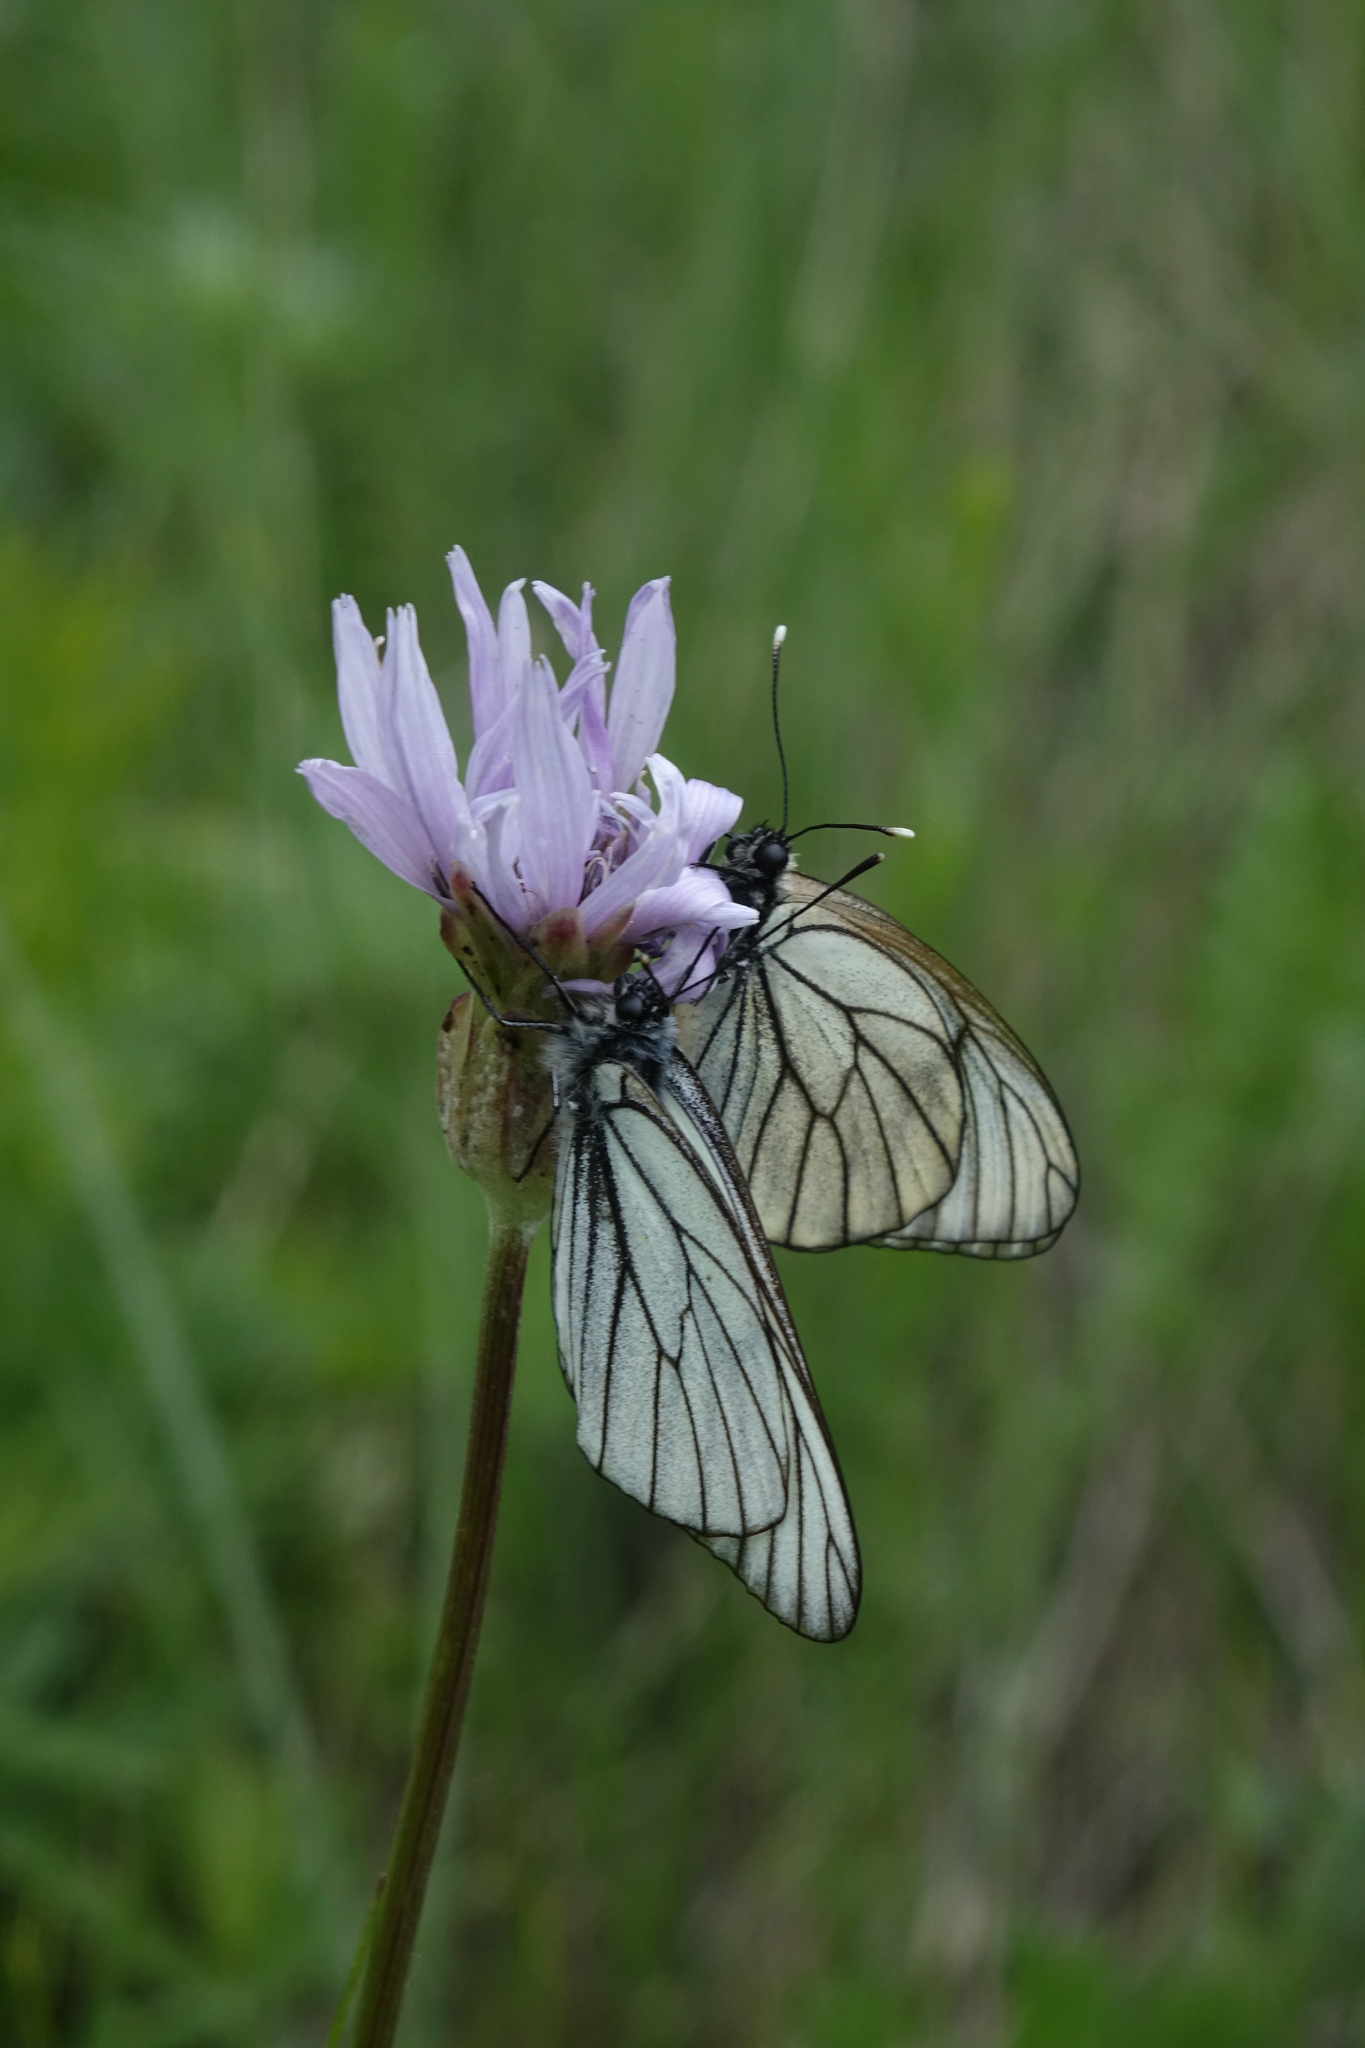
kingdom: Plantae
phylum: Tracheophyta
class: Magnoliopsida
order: Asterales
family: Asteraceae
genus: Scorzonera
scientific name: Scorzonera purpurea
